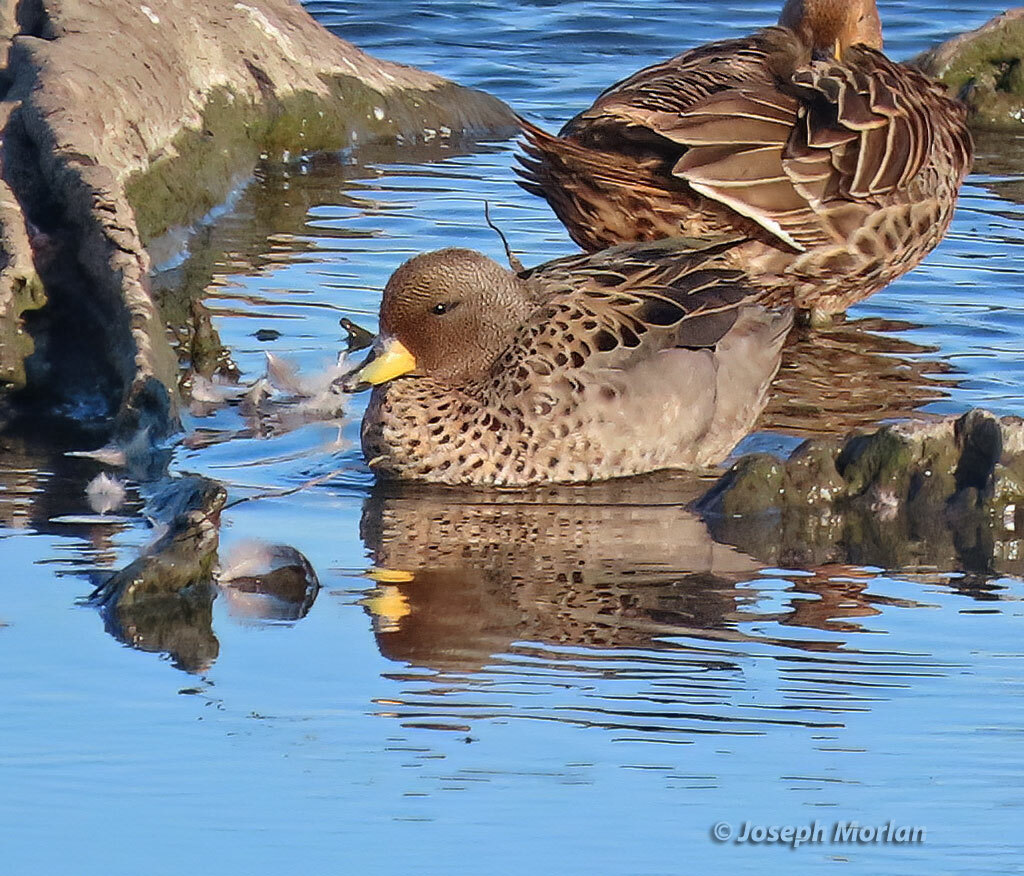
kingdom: Animalia
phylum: Chordata
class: Aves
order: Anseriformes
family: Anatidae
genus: Anas
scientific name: Anas flavirostris
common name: Yellow-billed teal
